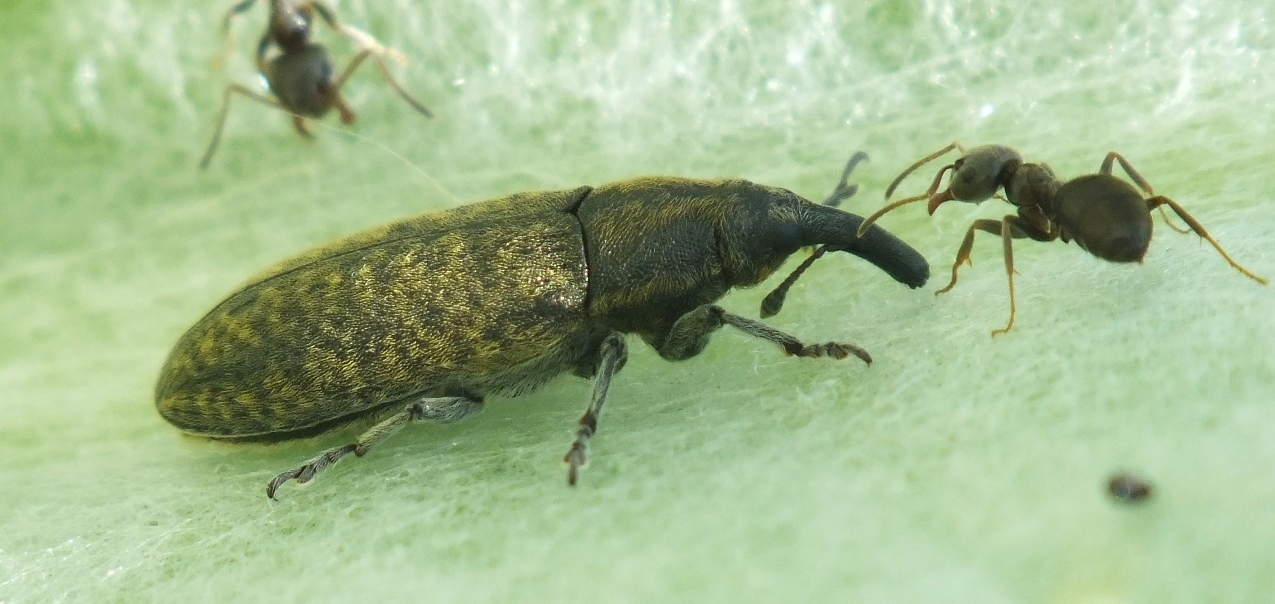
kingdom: Animalia
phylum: Arthropoda
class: Insecta
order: Coleoptera
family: Curculionidae
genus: Lixus
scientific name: Lixus cardui
